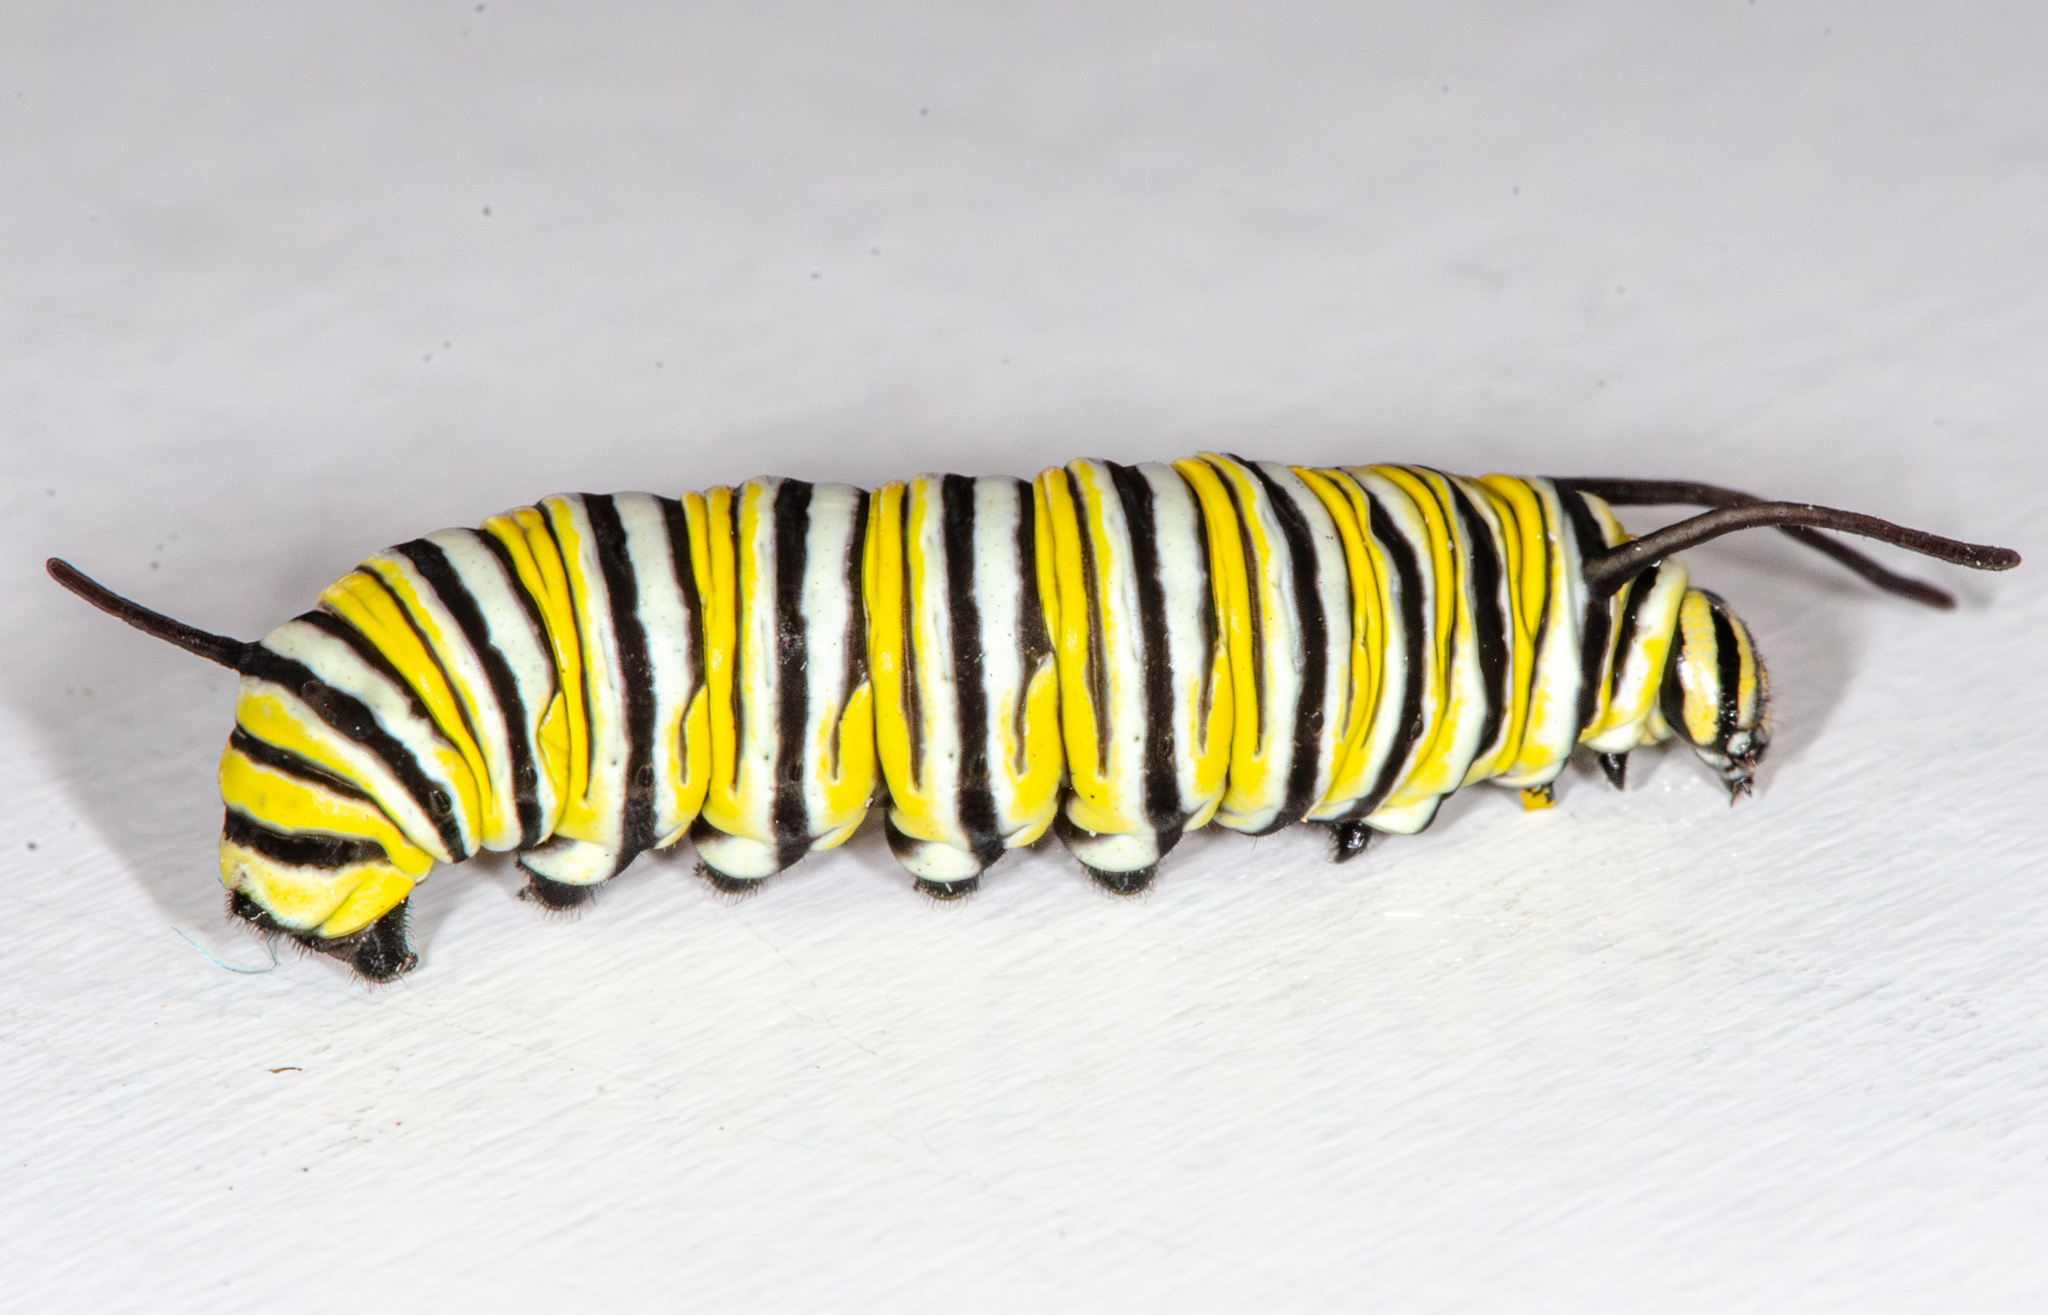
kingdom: Animalia
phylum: Arthropoda
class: Insecta
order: Lepidoptera
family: Nymphalidae
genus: Danaus
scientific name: Danaus plexippus
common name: Monarch
